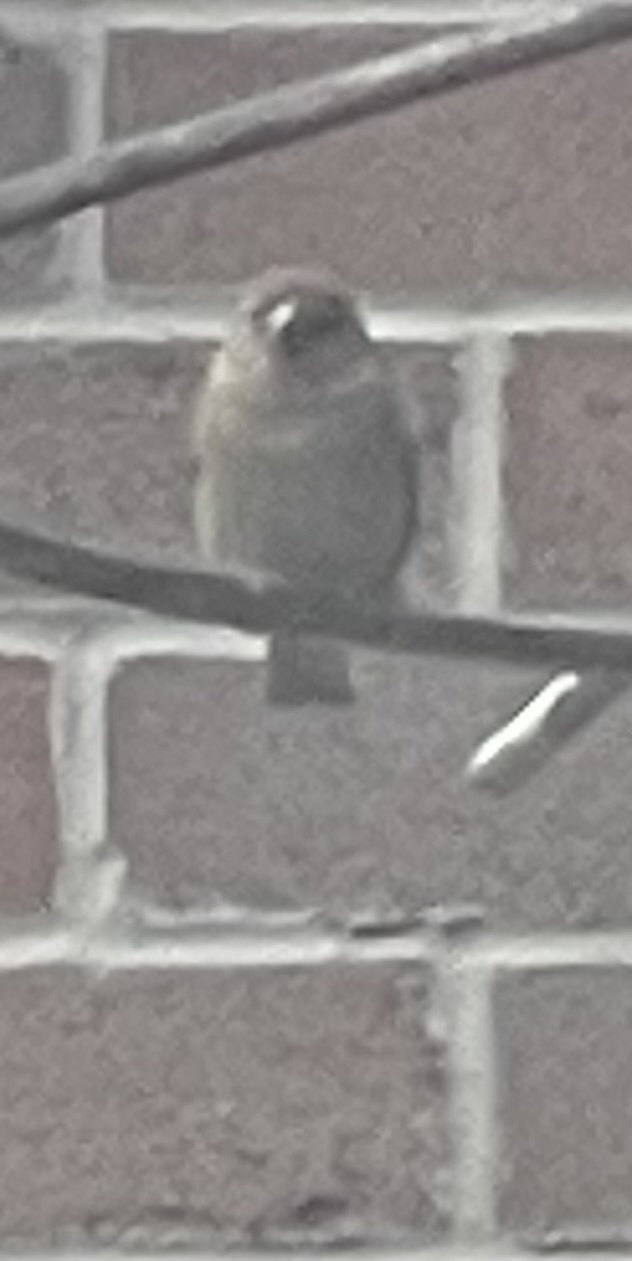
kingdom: Animalia
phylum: Chordata
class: Aves
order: Passeriformes
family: Passeridae
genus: Passer
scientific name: Passer domesticus
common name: House sparrow
